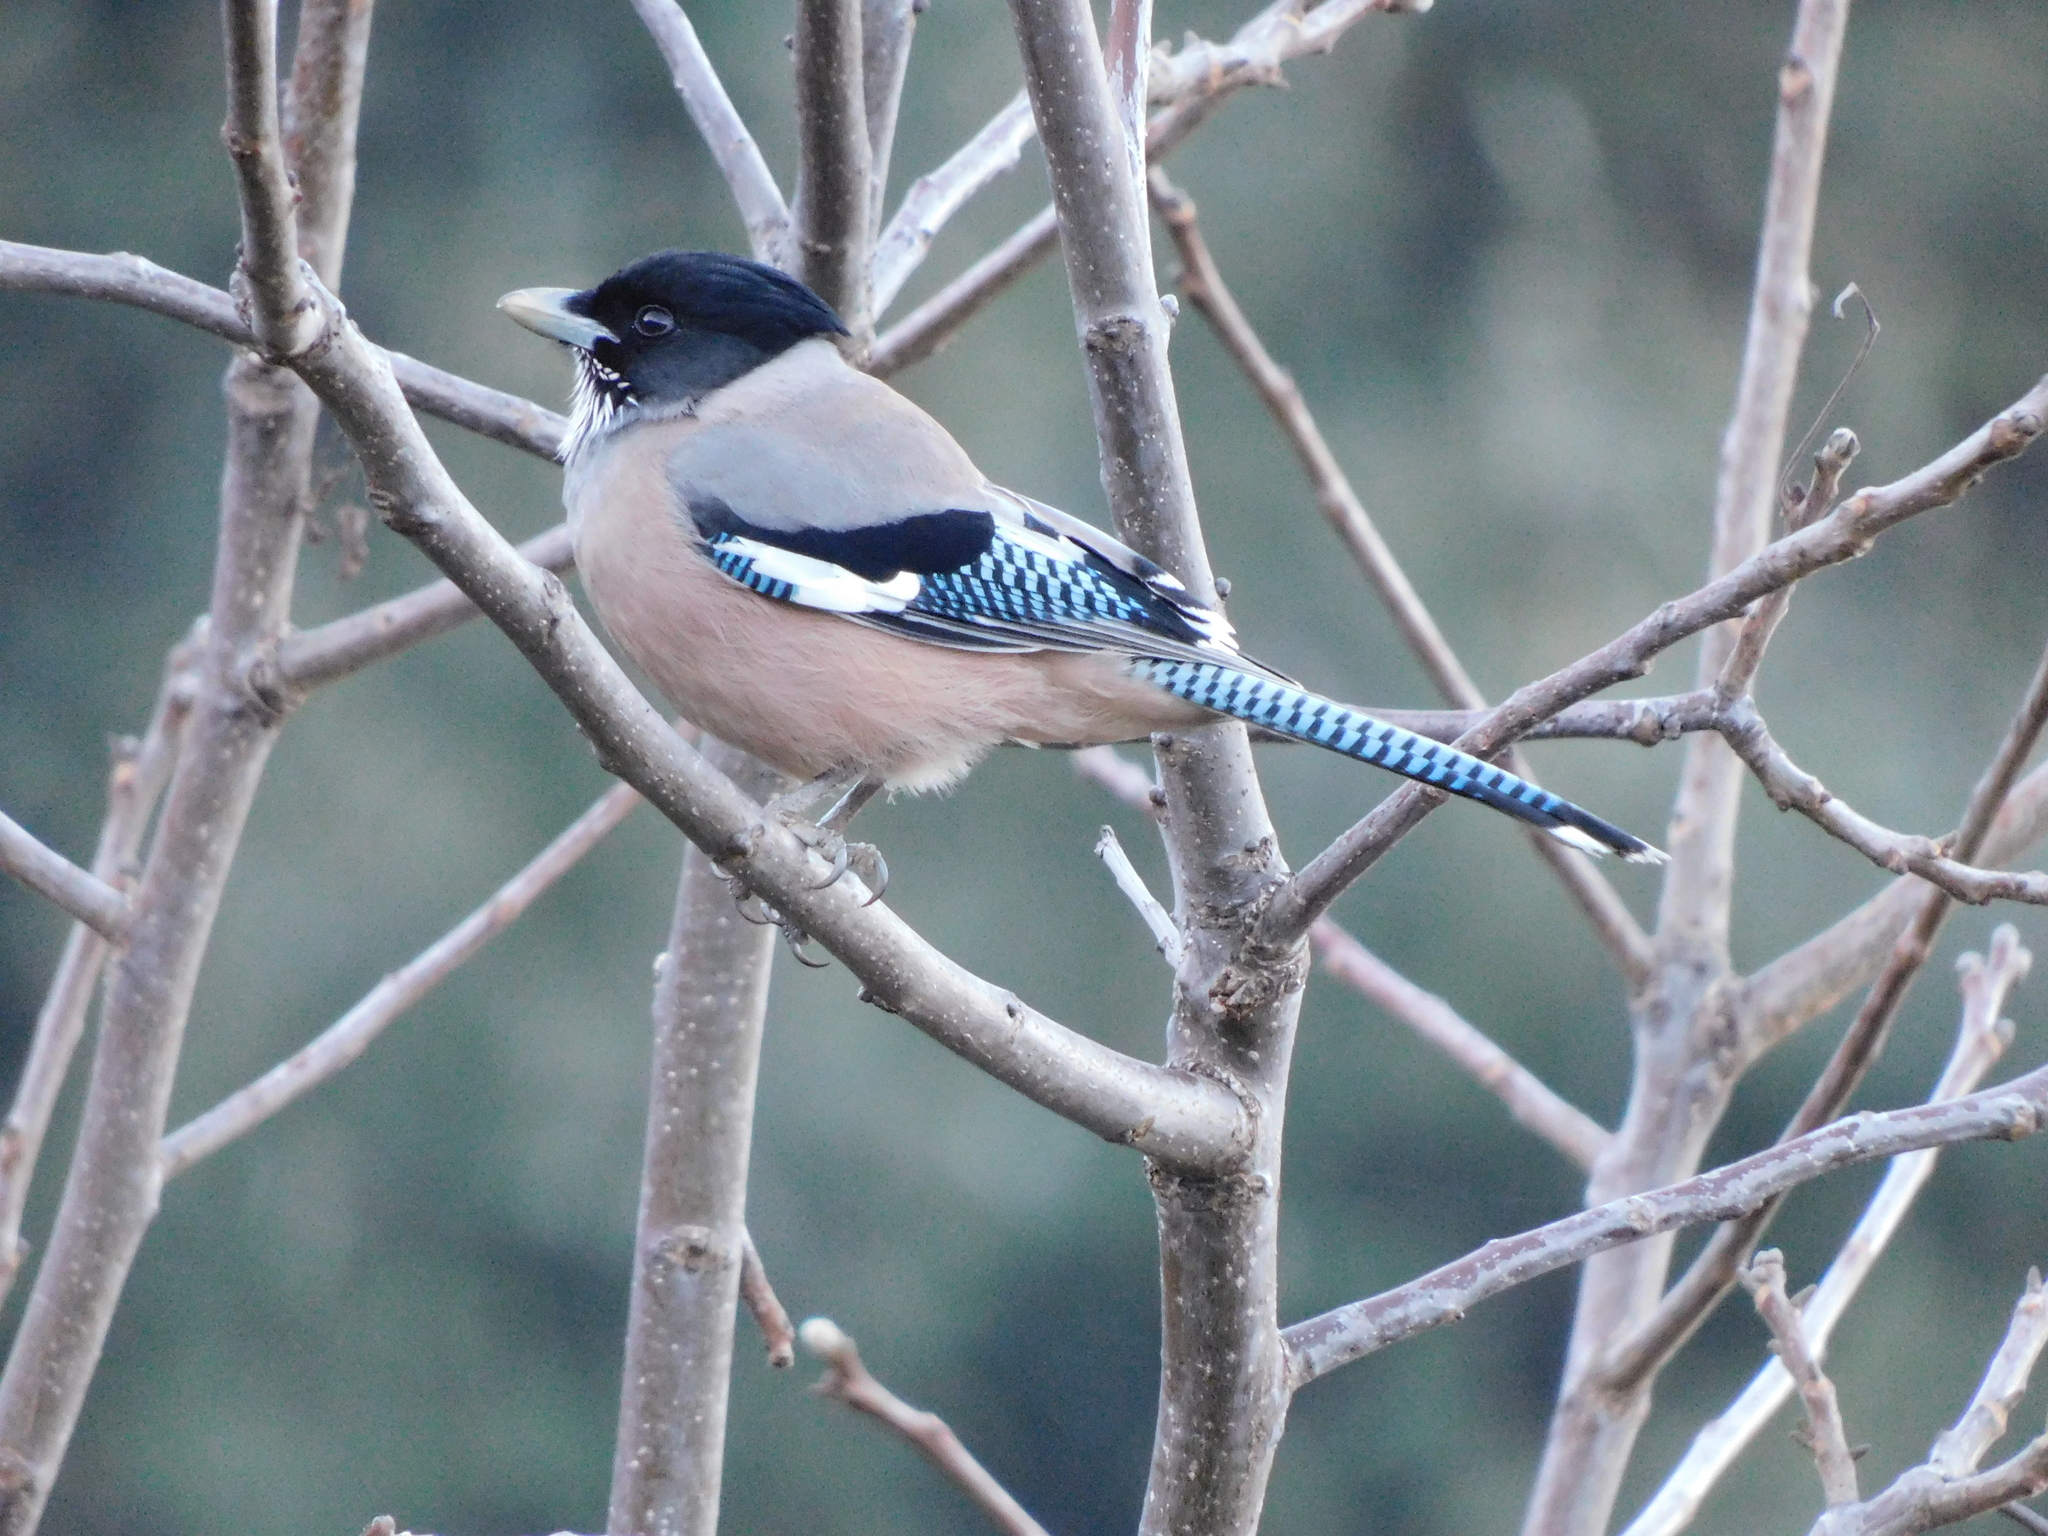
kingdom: Animalia
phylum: Chordata
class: Aves
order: Passeriformes
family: Corvidae
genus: Garrulus
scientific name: Garrulus lanceolatus
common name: Black-headed jay
